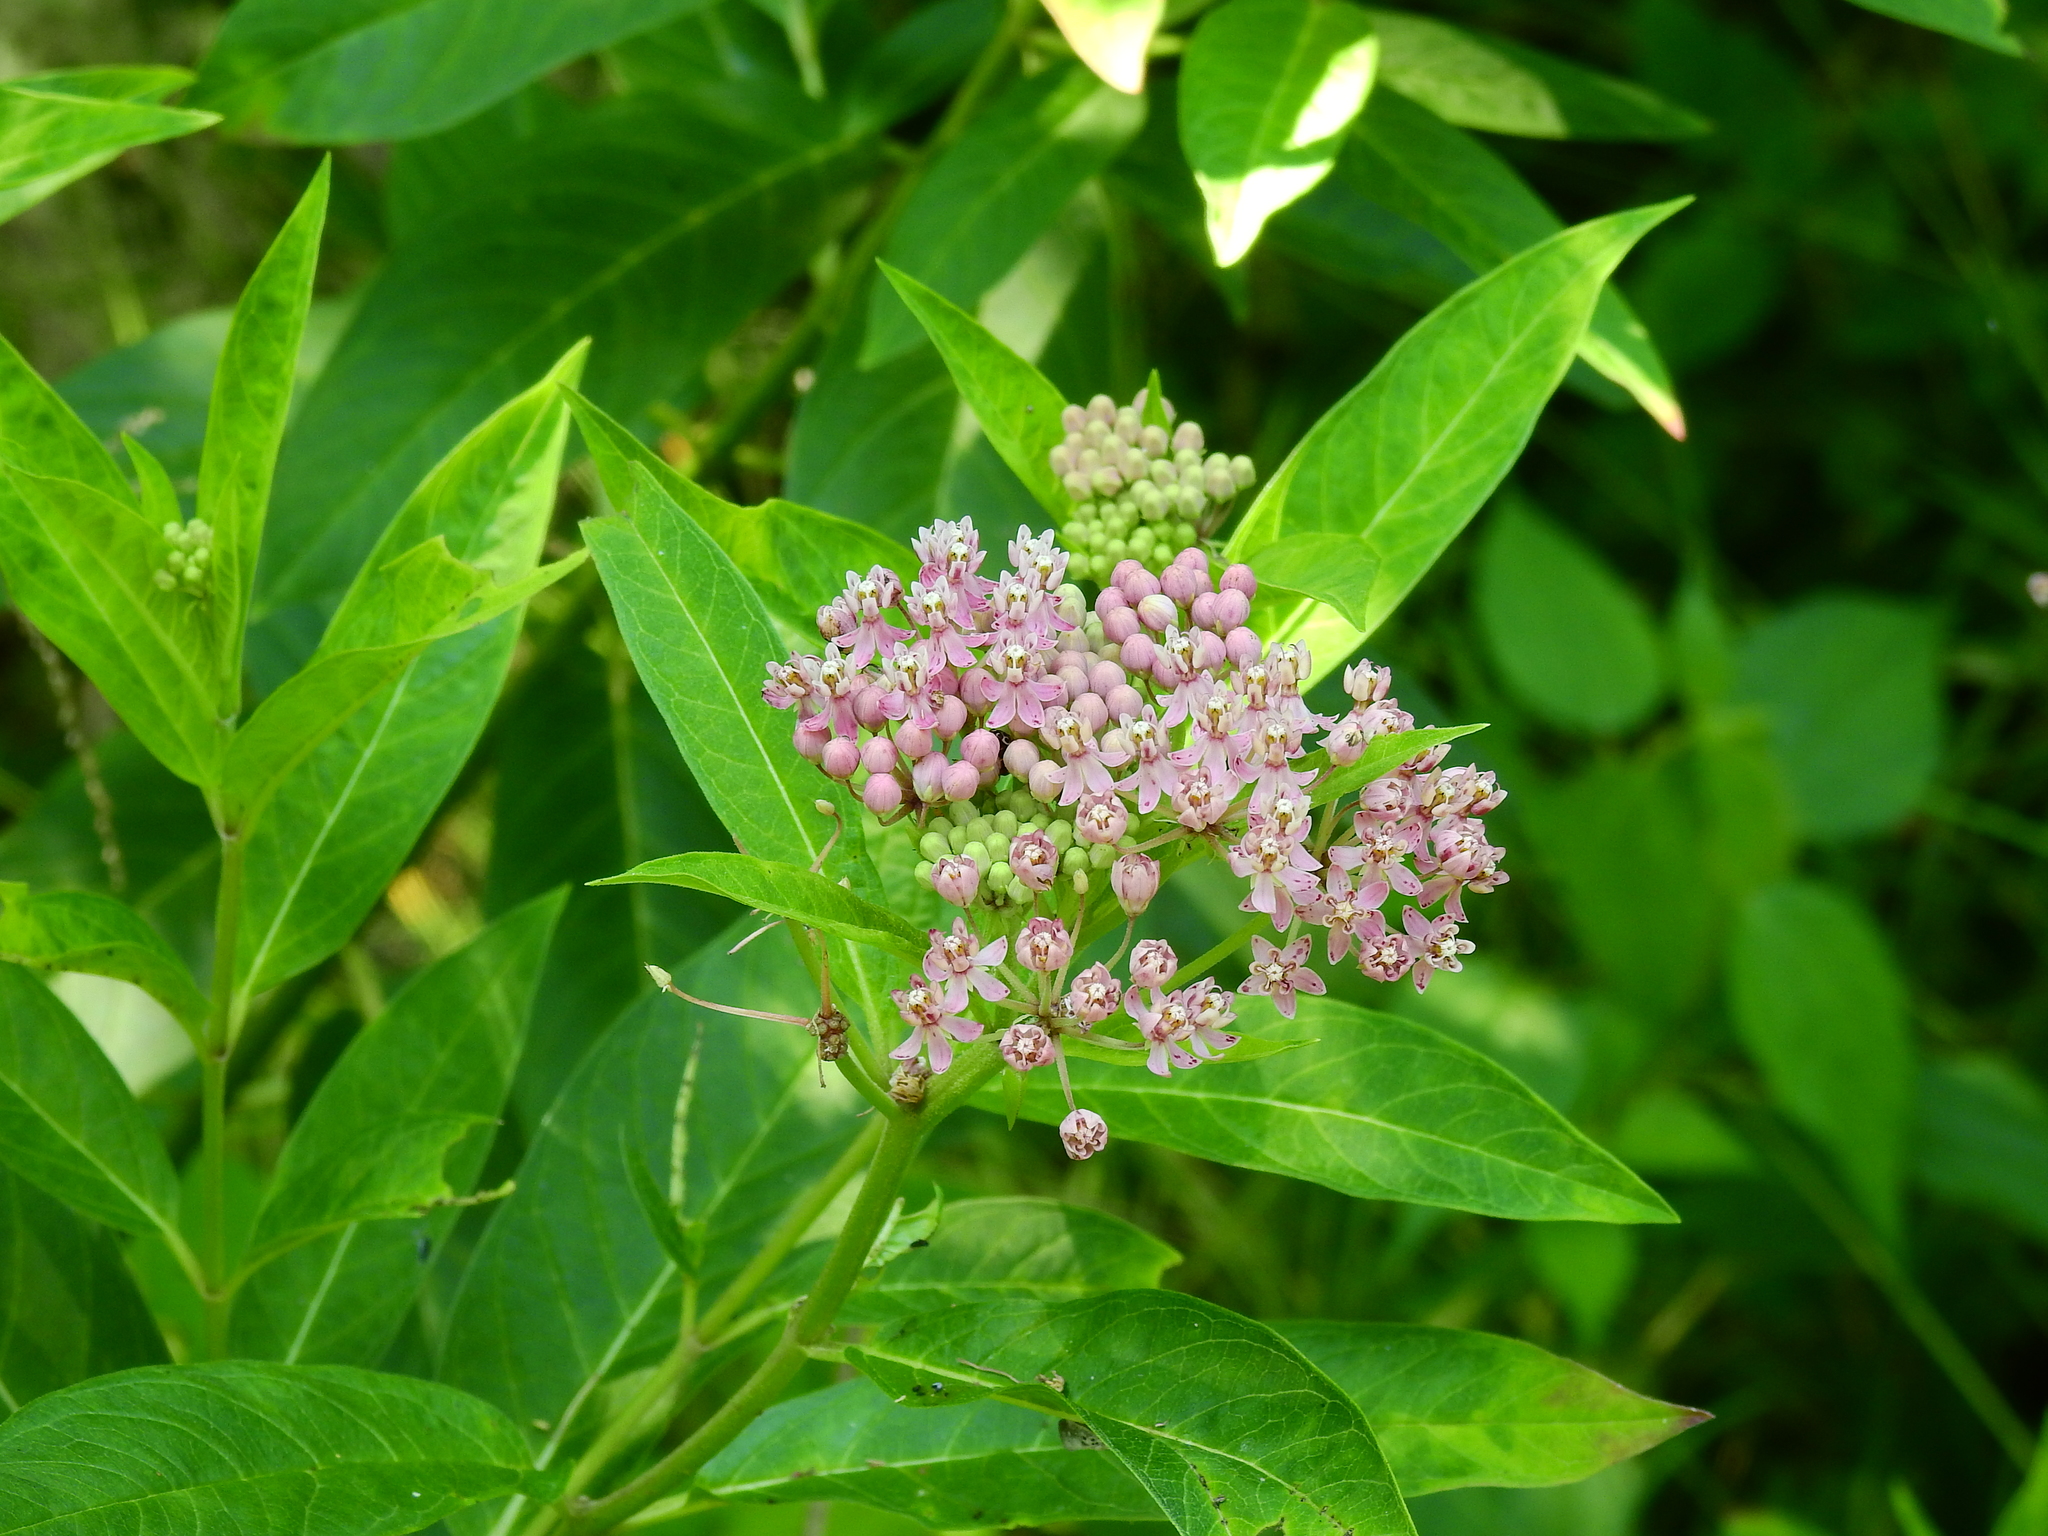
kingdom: Plantae
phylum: Tracheophyta
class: Magnoliopsida
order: Gentianales
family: Apocynaceae
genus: Asclepias
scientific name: Asclepias incarnata
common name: Swamp milkweed
